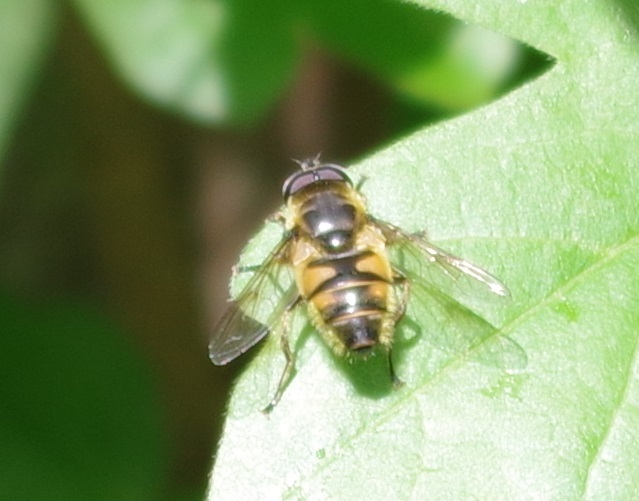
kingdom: Animalia
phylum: Arthropoda
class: Insecta
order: Diptera
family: Syrphidae
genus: Myathropa
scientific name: Myathropa florea
